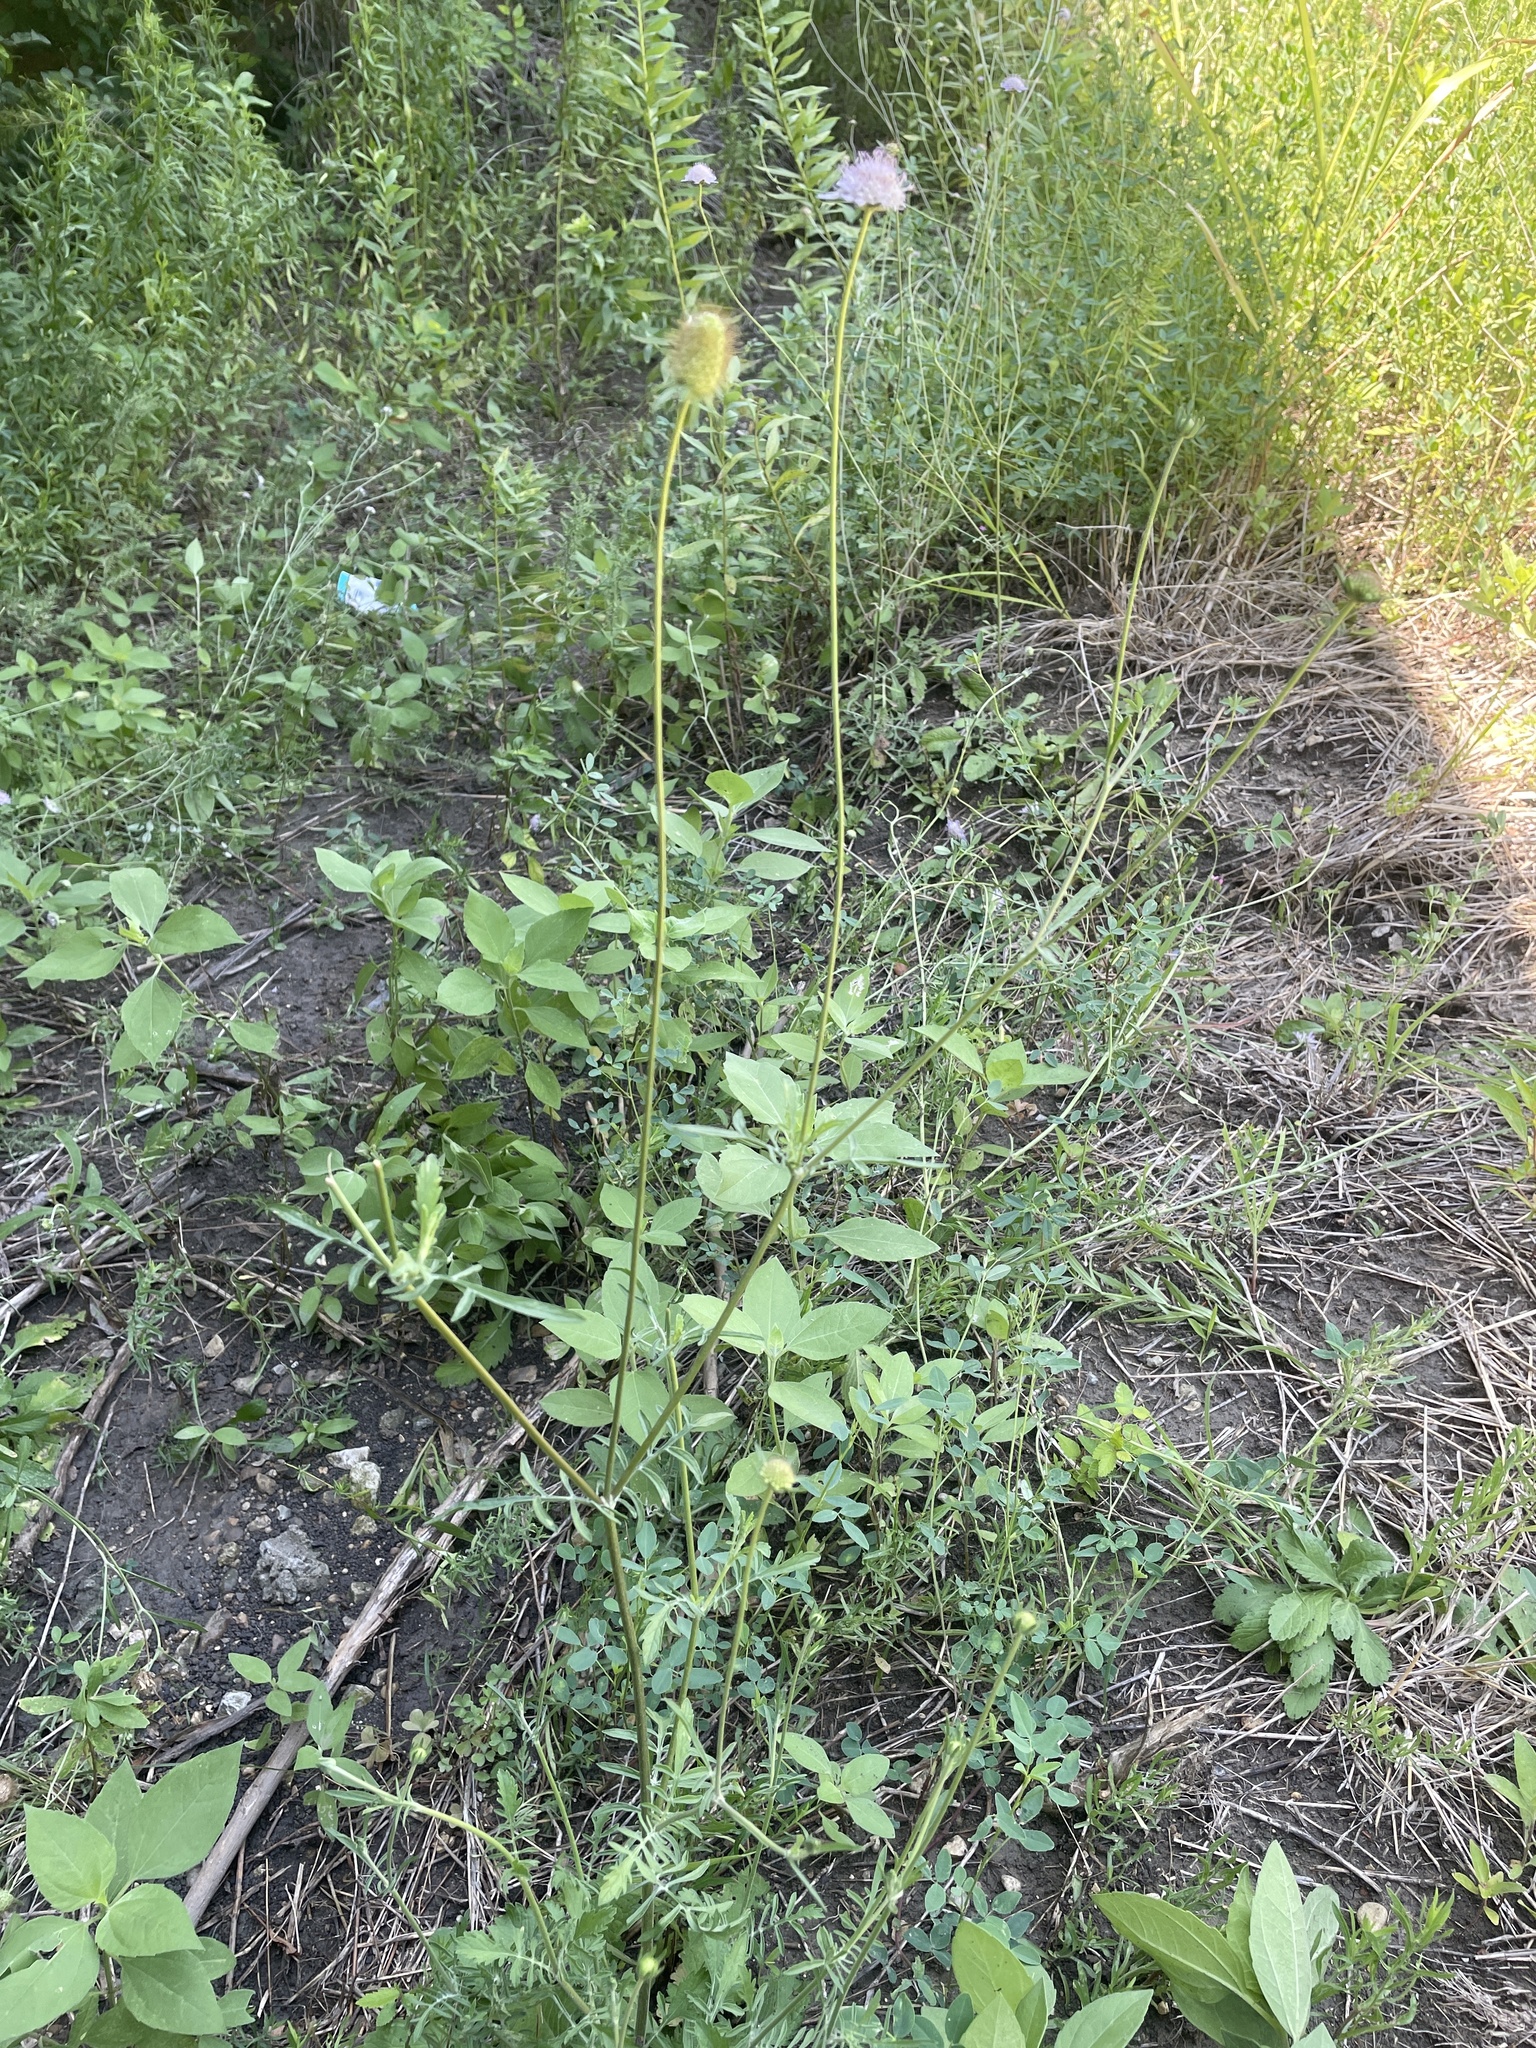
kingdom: Plantae
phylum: Tracheophyta
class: Magnoliopsida
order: Dipsacales
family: Caprifoliaceae
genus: Sixalix
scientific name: Sixalix atropurpurea
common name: Sweet scabious
